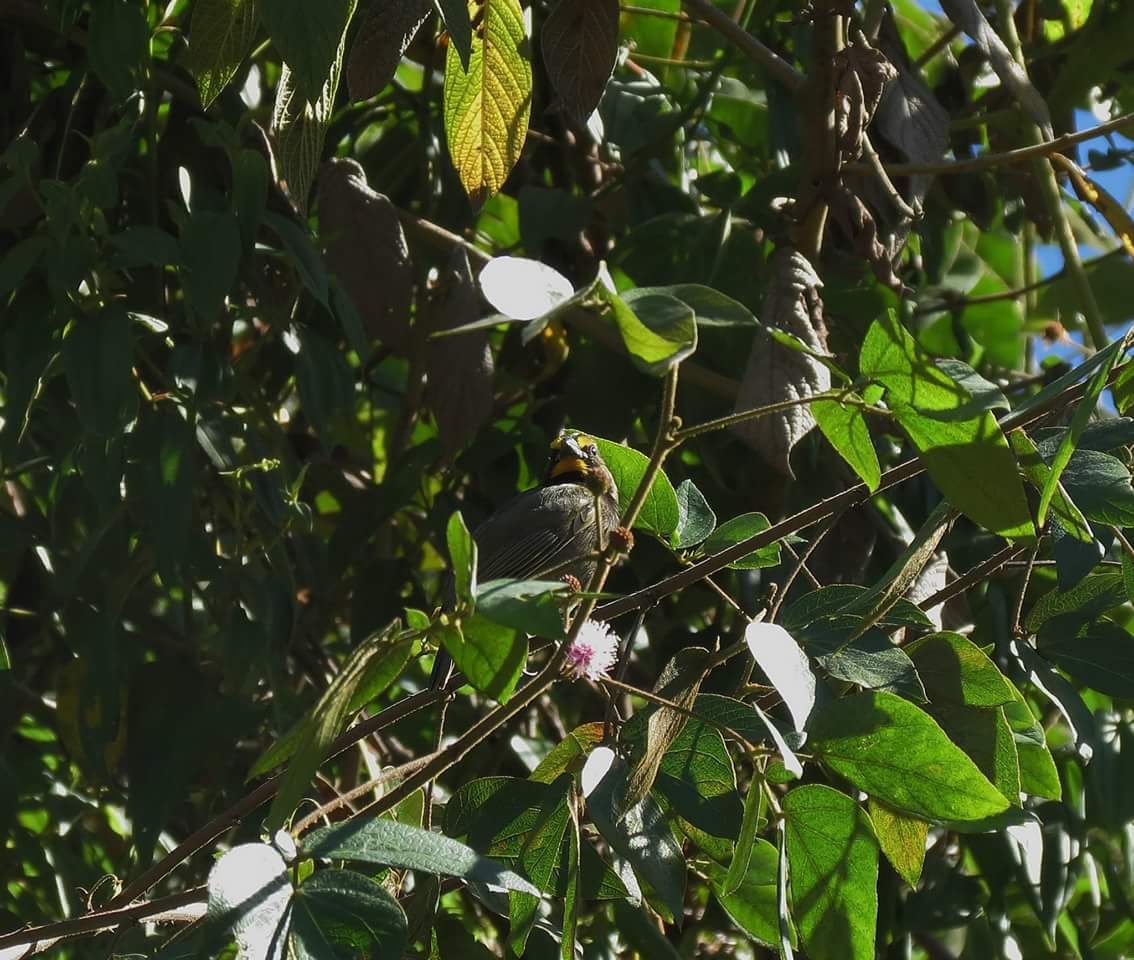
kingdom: Animalia
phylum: Chordata
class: Aves
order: Passeriformes
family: Thraupidae
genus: Tiaris
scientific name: Tiaris olivaceus
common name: Yellow-faced grassquit
